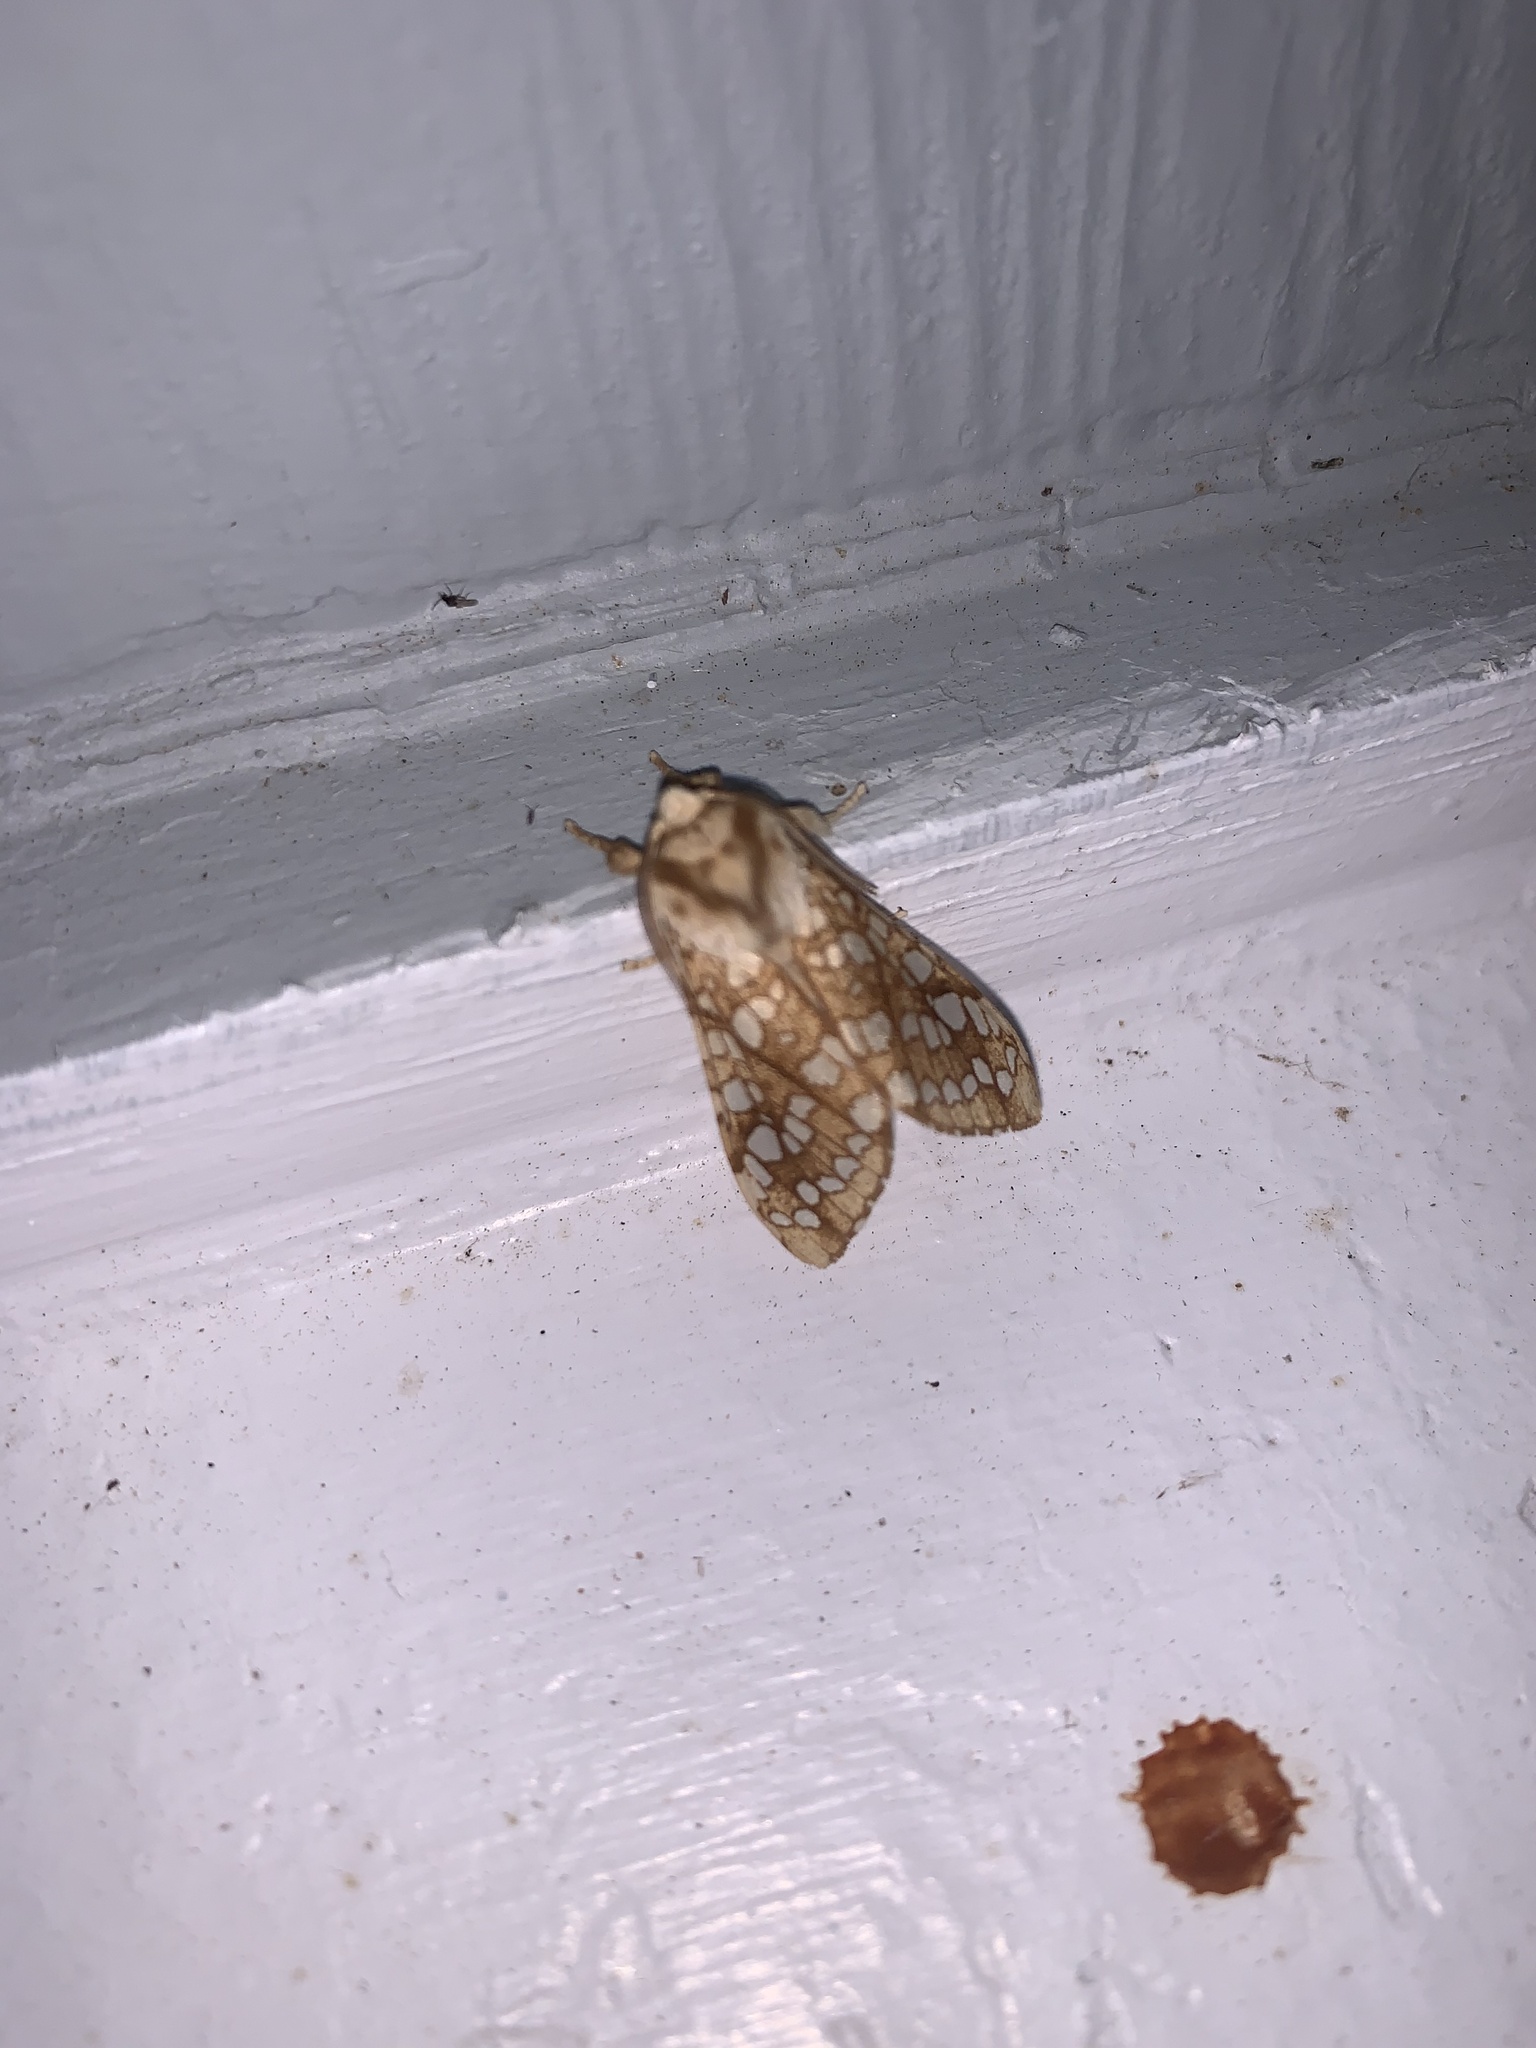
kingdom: Animalia
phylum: Arthropoda
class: Insecta
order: Lepidoptera
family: Erebidae
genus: Lophocampa
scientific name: Lophocampa caryae
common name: Hickory tussock moth
